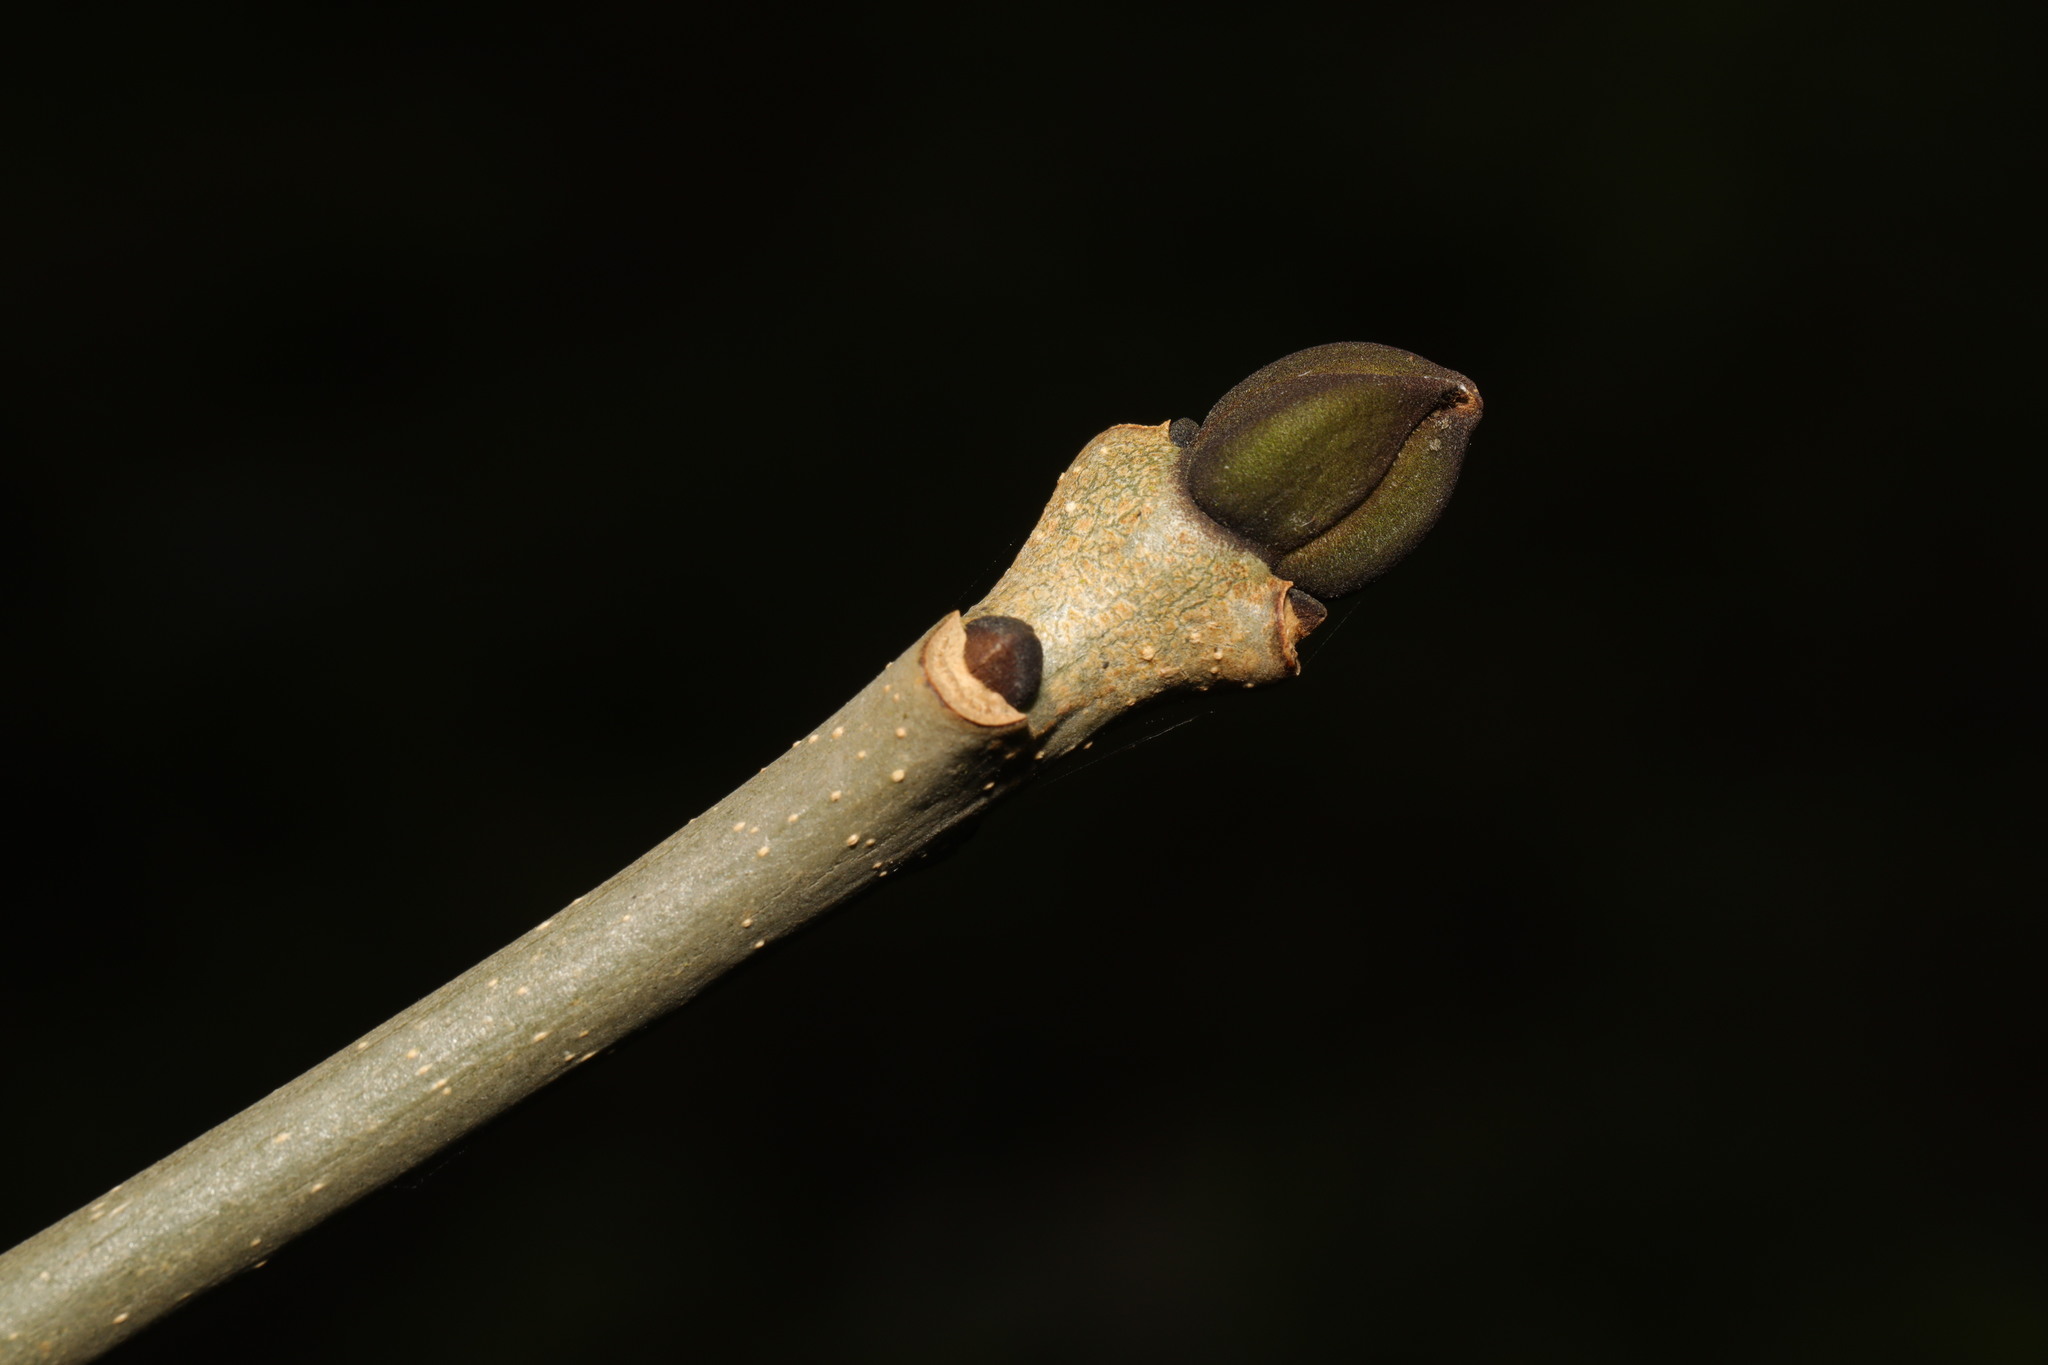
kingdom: Plantae
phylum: Tracheophyta
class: Magnoliopsida
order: Lamiales
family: Oleaceae
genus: Fraxinus
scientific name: Fraxinus excelsior
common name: European ash
